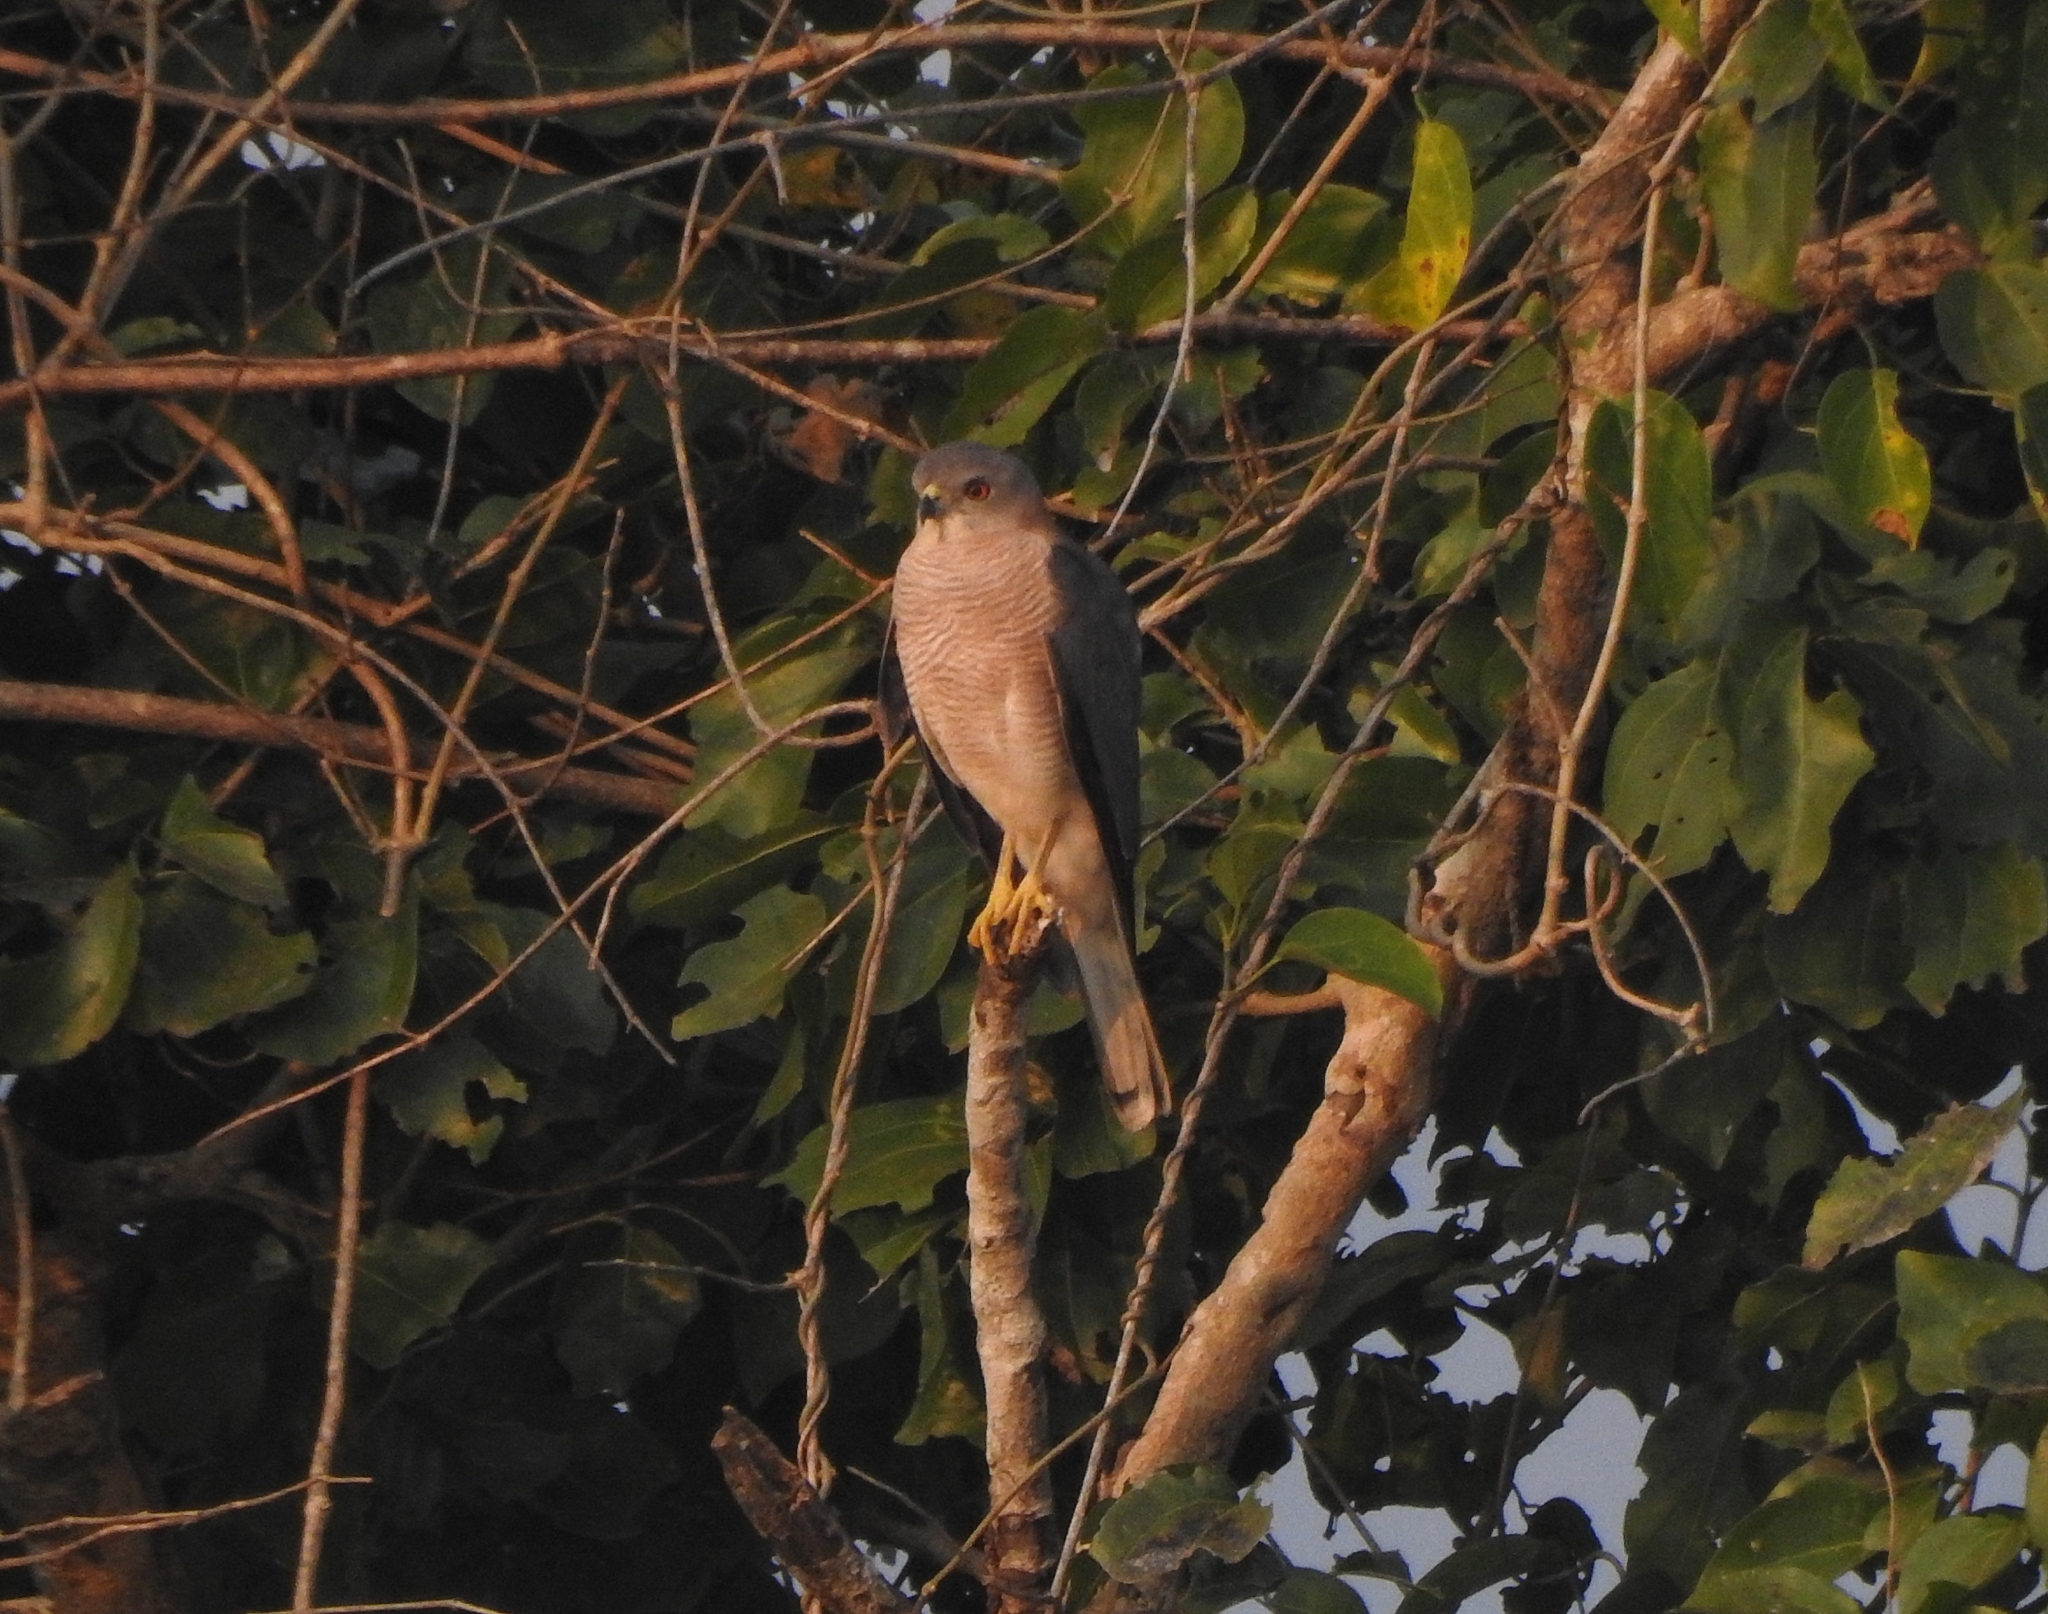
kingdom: Animalia
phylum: Chordata
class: Aves
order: Accipitriformes
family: Accipitridae
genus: Accipiter
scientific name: Accipiter badius
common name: Shikra
